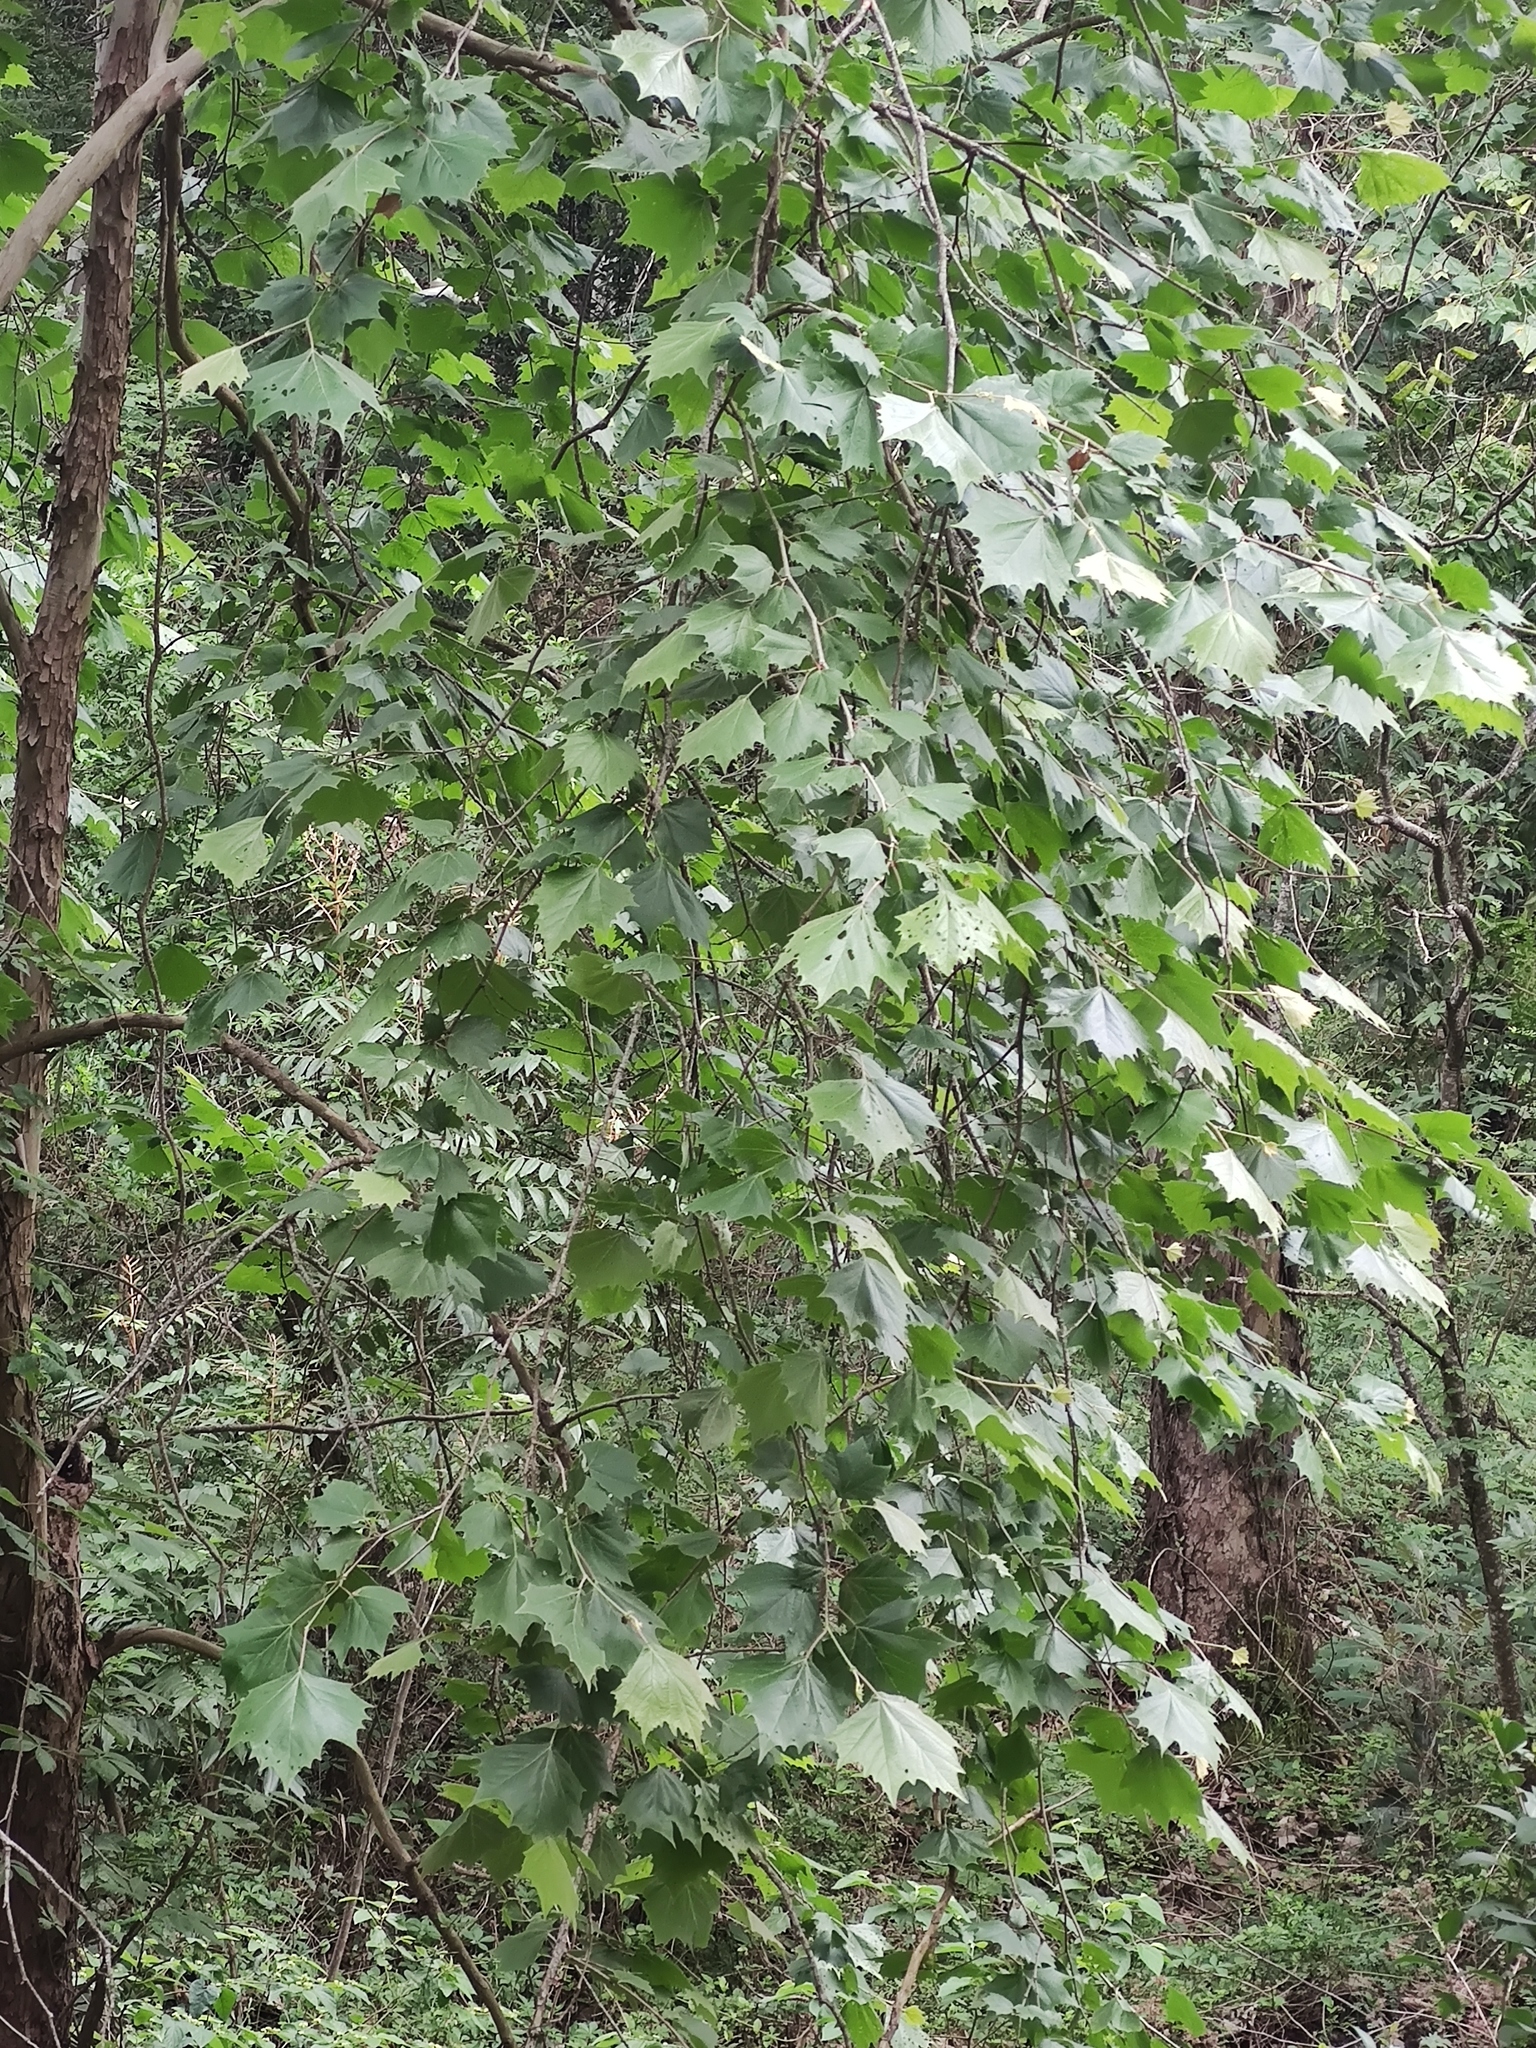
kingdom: Plantae
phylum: Tracheophyta
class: Magnoliopsida
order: Proteales
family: Platanaceae
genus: Platanus
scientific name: Platanus rzedowskii
